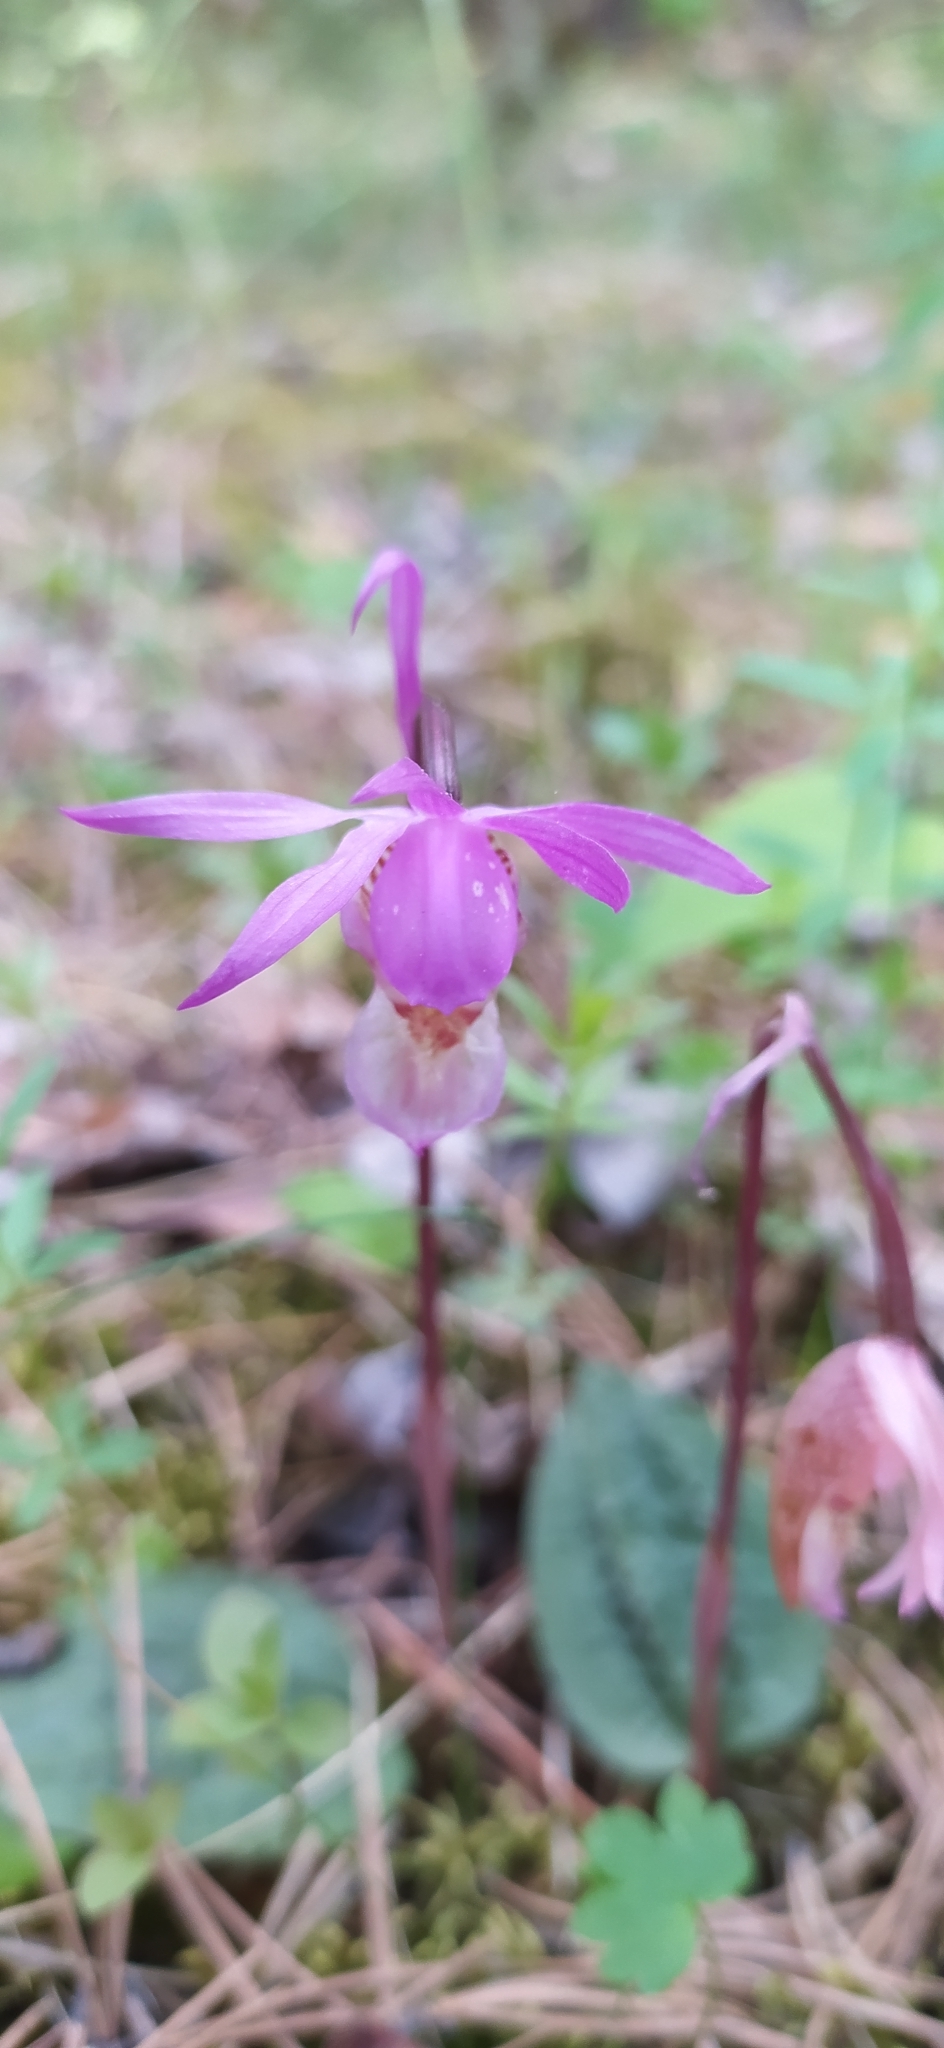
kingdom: Plantae
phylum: Tracheophyta
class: Liliopsida
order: Asparagales
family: Orchidaceae
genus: Calypso
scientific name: Calypso bulbosa
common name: Calypso
